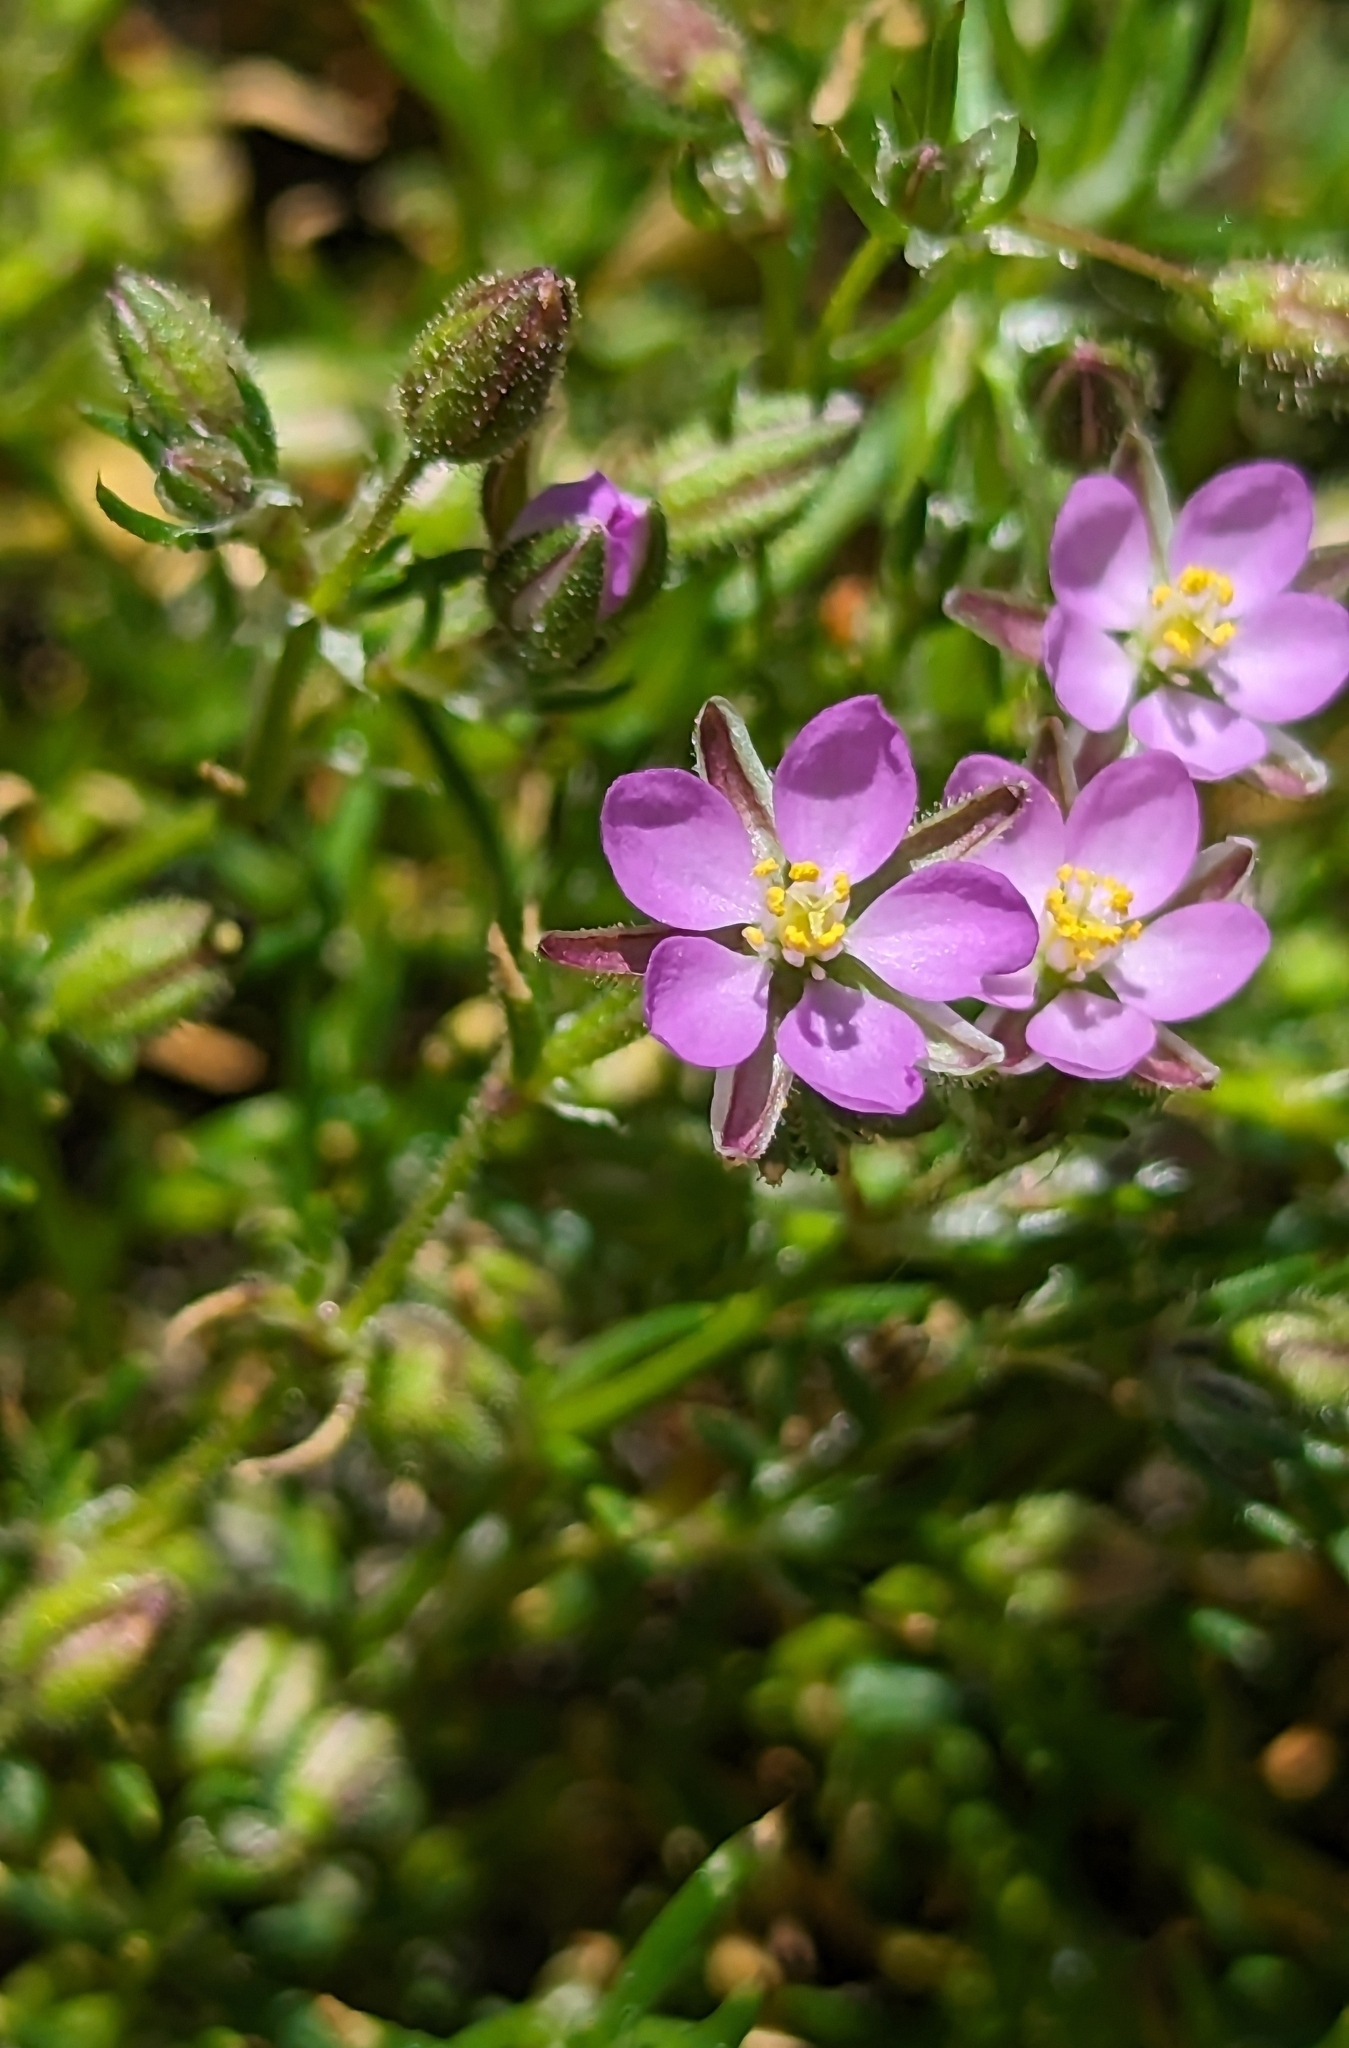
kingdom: Plantae
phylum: Tracheophyta
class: Magnoliopsida
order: Caryophyllales
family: Caryophyllaceae
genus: Spergularia
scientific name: Spergularia rubra
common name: Red sand-spurrey
